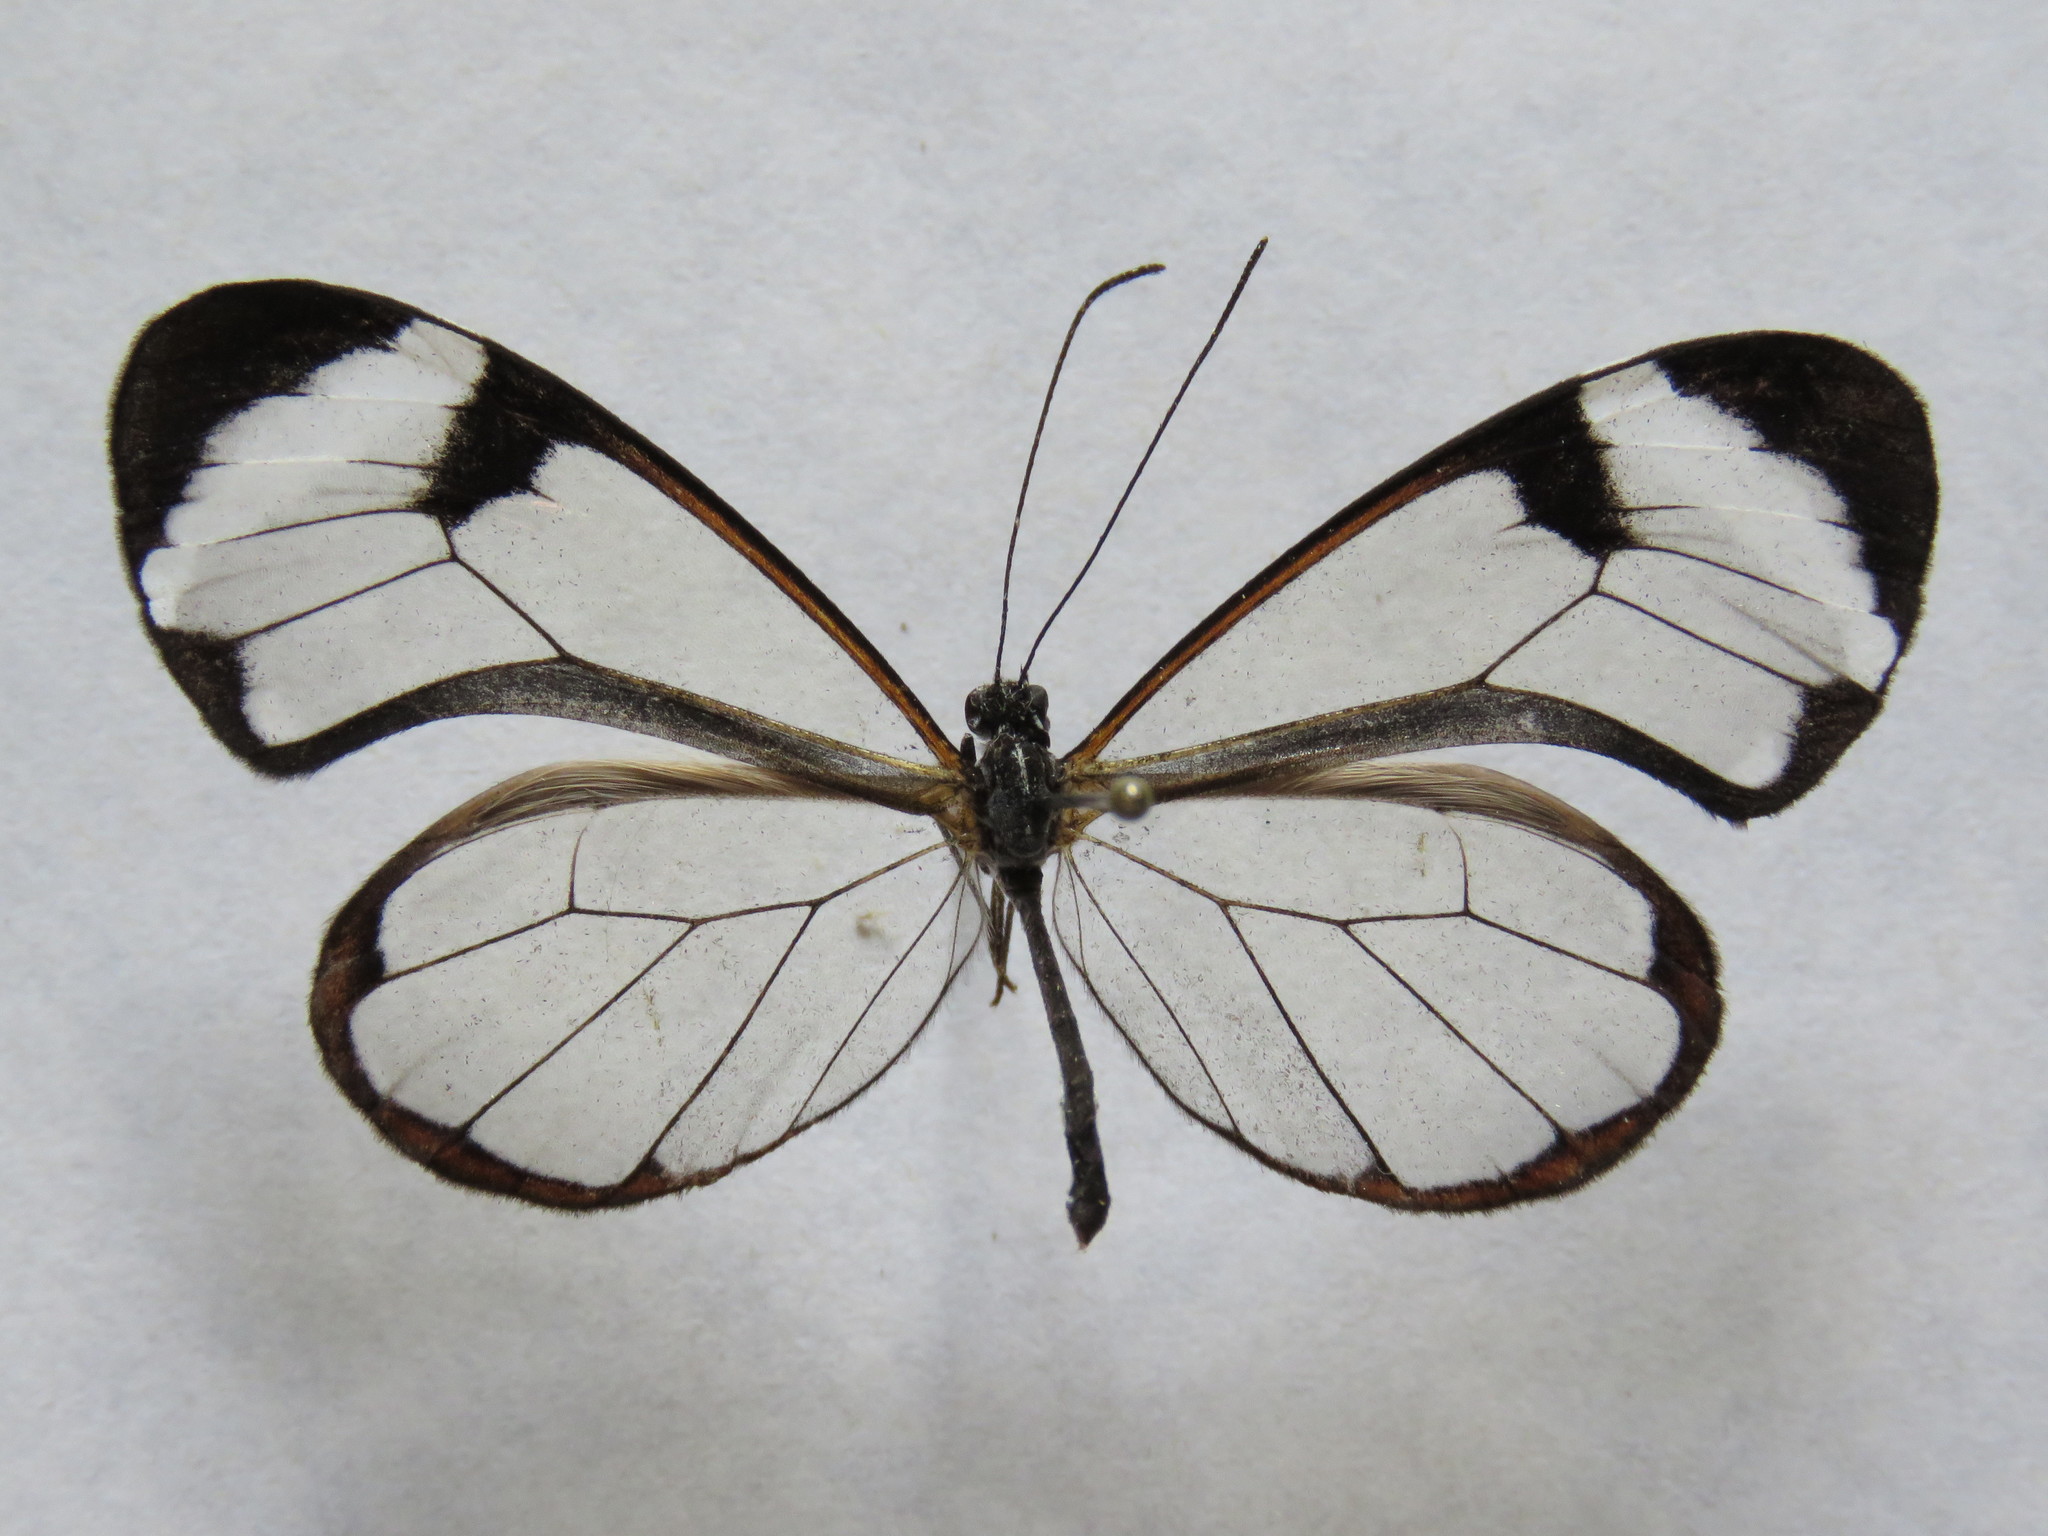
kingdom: Animalia
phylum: Arthropoda
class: Insecta
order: Lepidoptera
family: Nymphalidae
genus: Greta
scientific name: Greta morgane
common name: Thick-tipped greta
